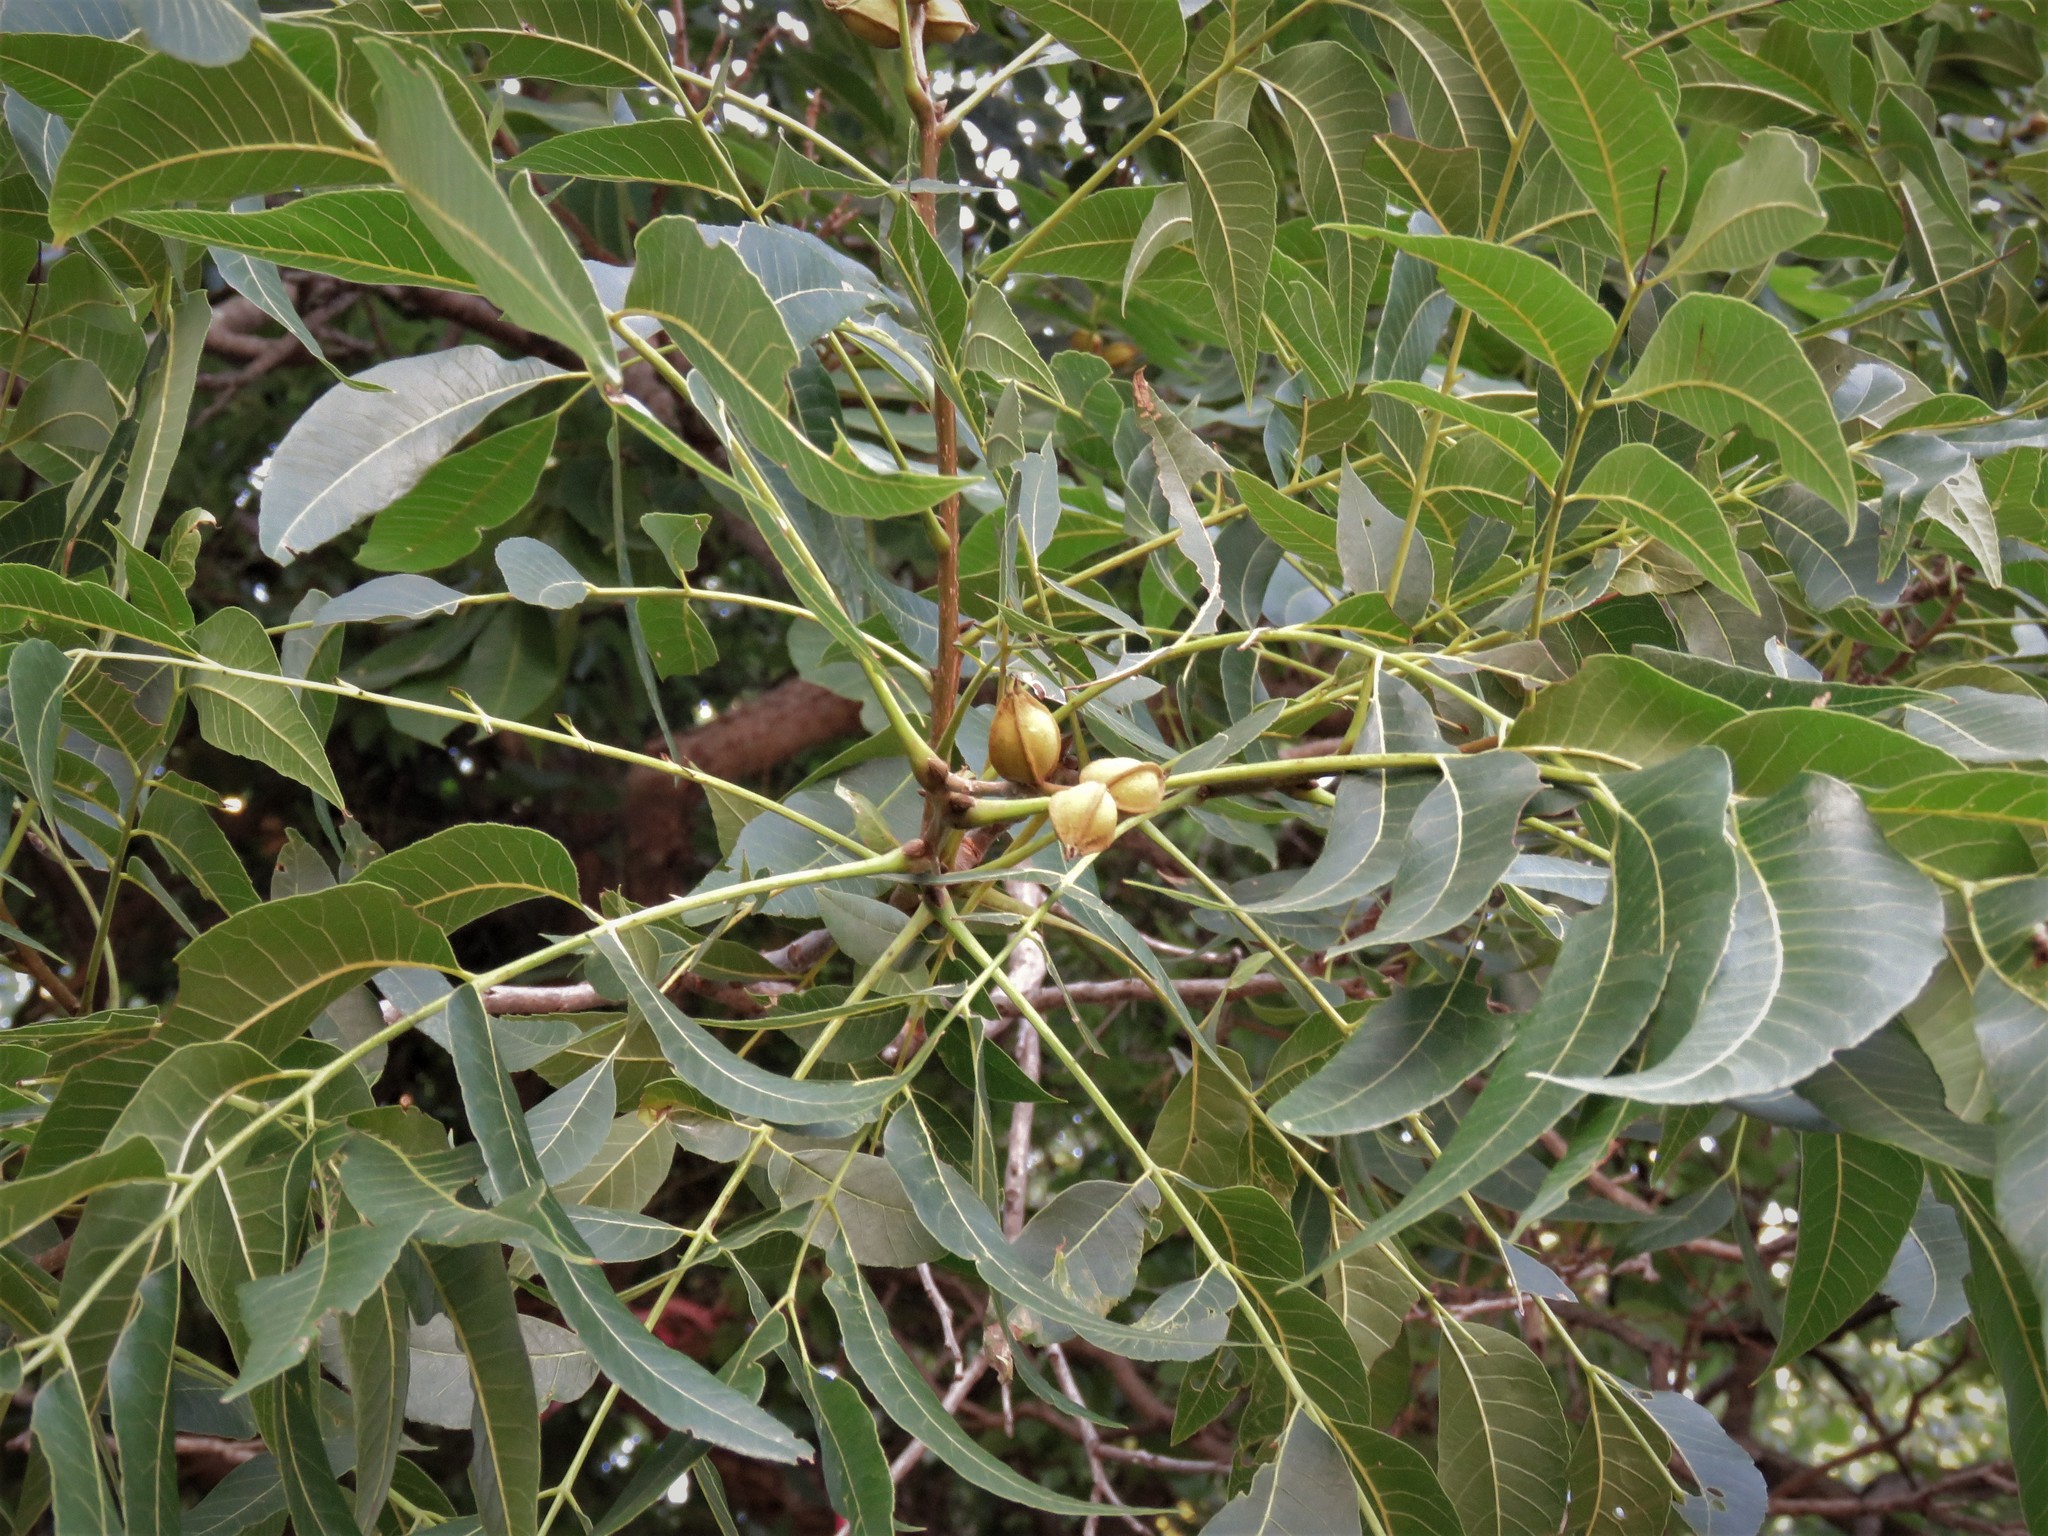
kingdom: Plantae
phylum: Tracheophyta
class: Magnoliopsida
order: Fagales
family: Juglandaceae
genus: Carya
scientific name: Carya illinoinensis
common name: Pecan
